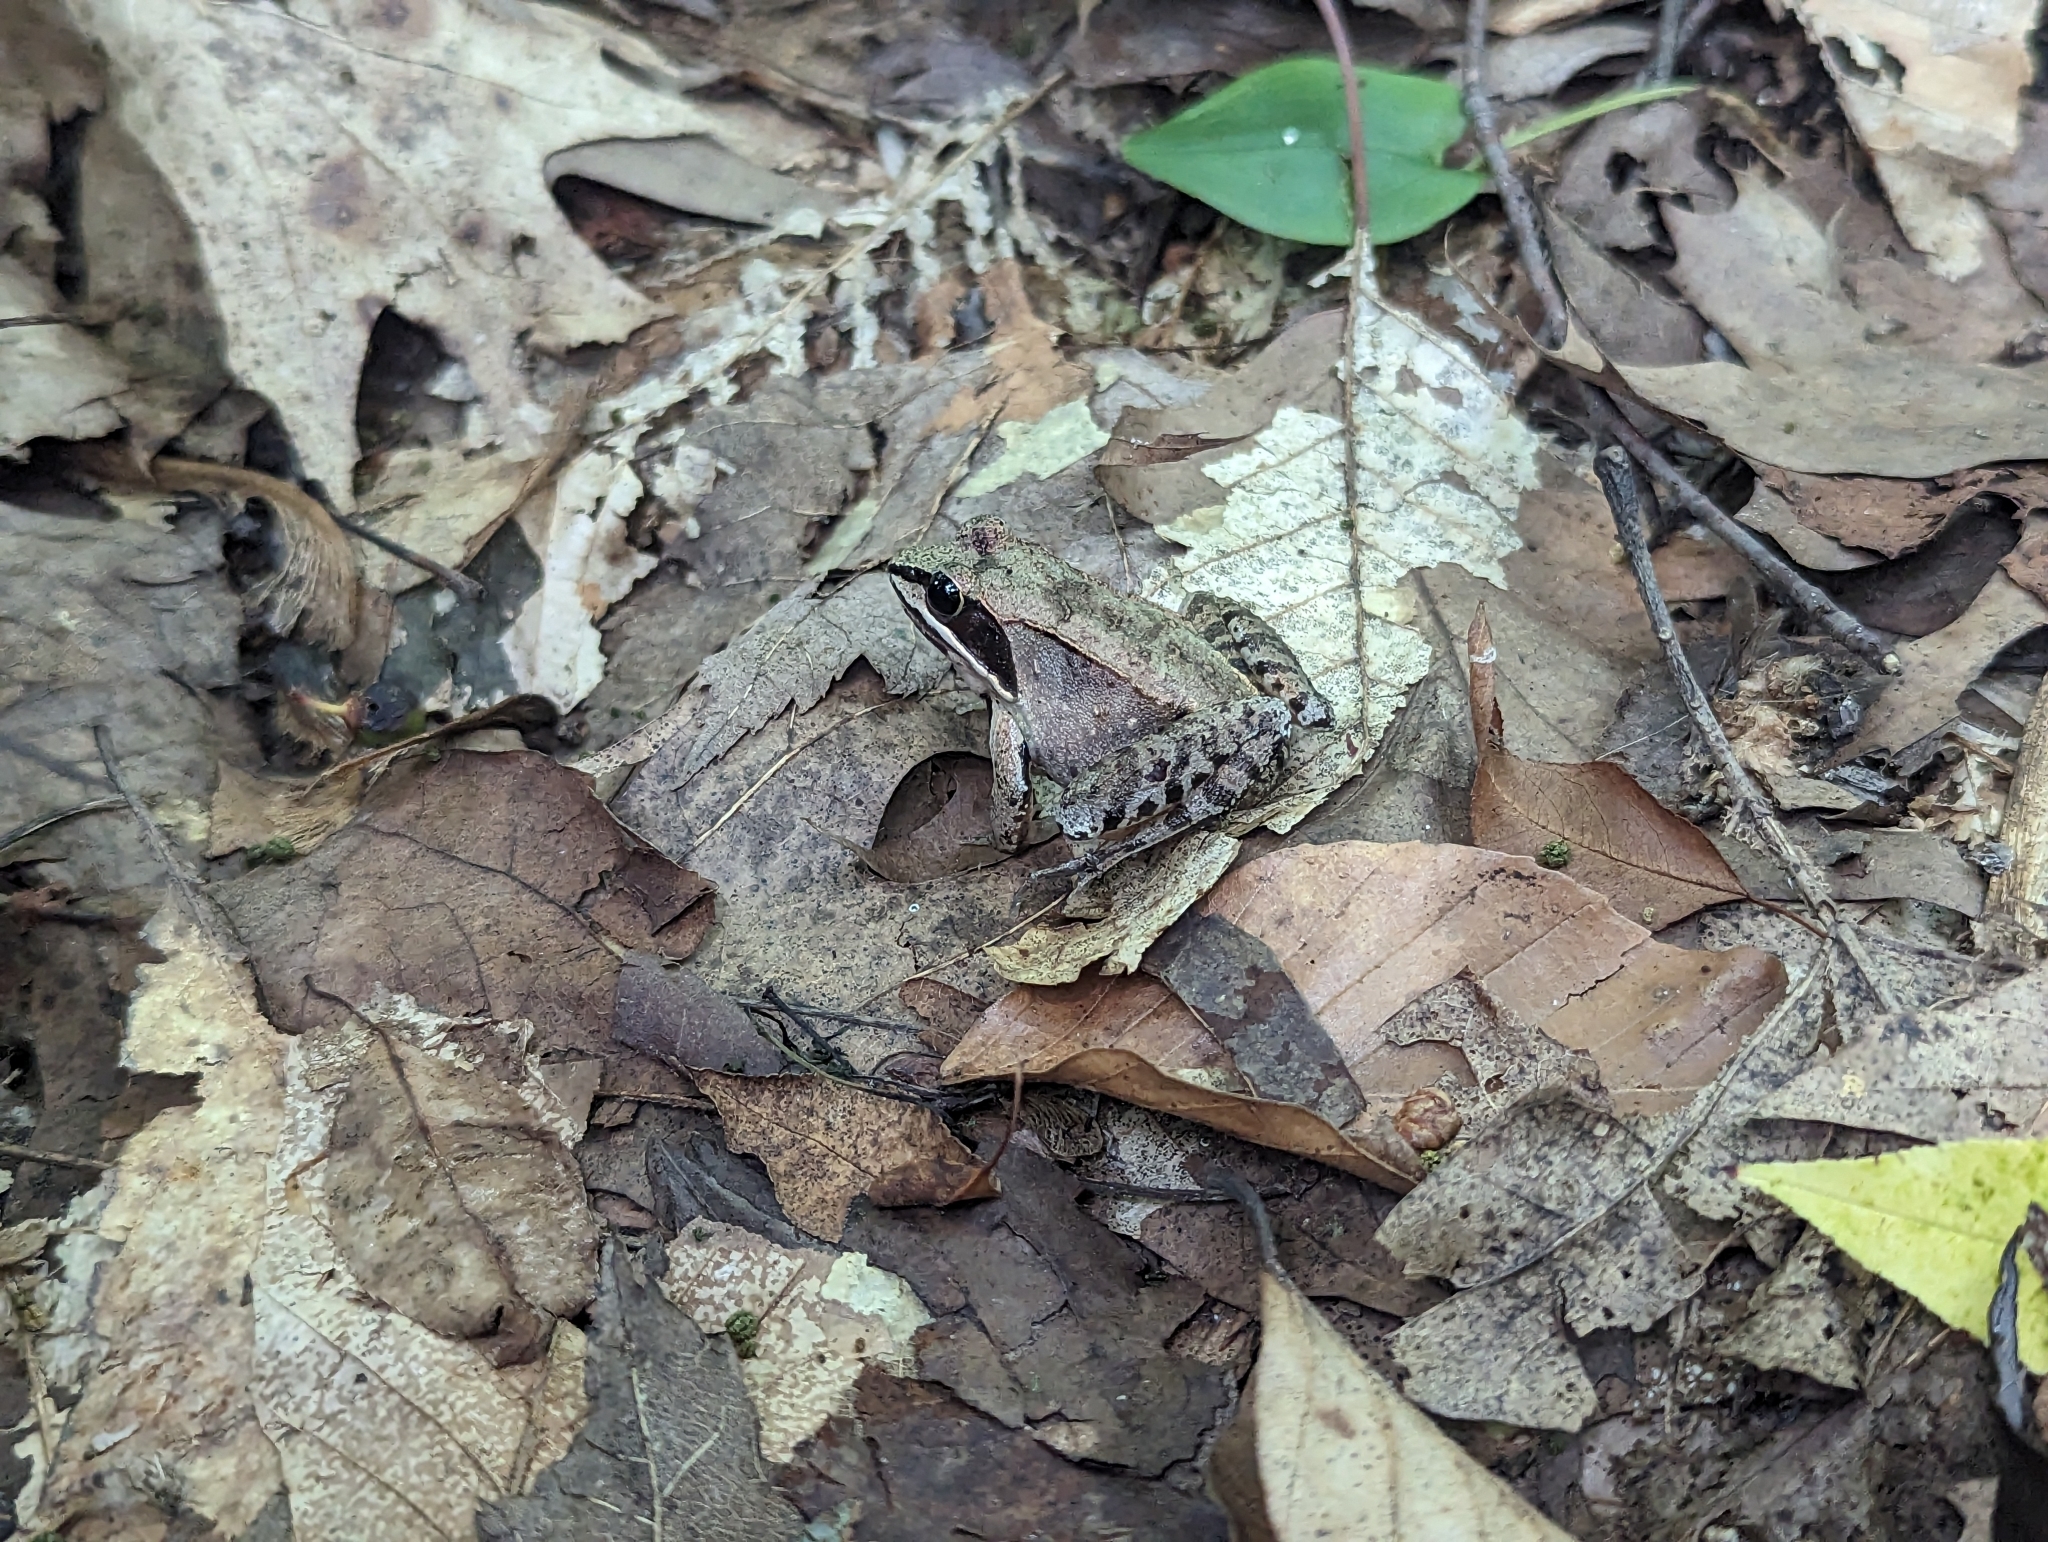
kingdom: Animalia
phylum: Chordata
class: Amphibia
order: Anura
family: Ranidae
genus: Lithobates
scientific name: Lithobates sylvaticus
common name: Wood frog
